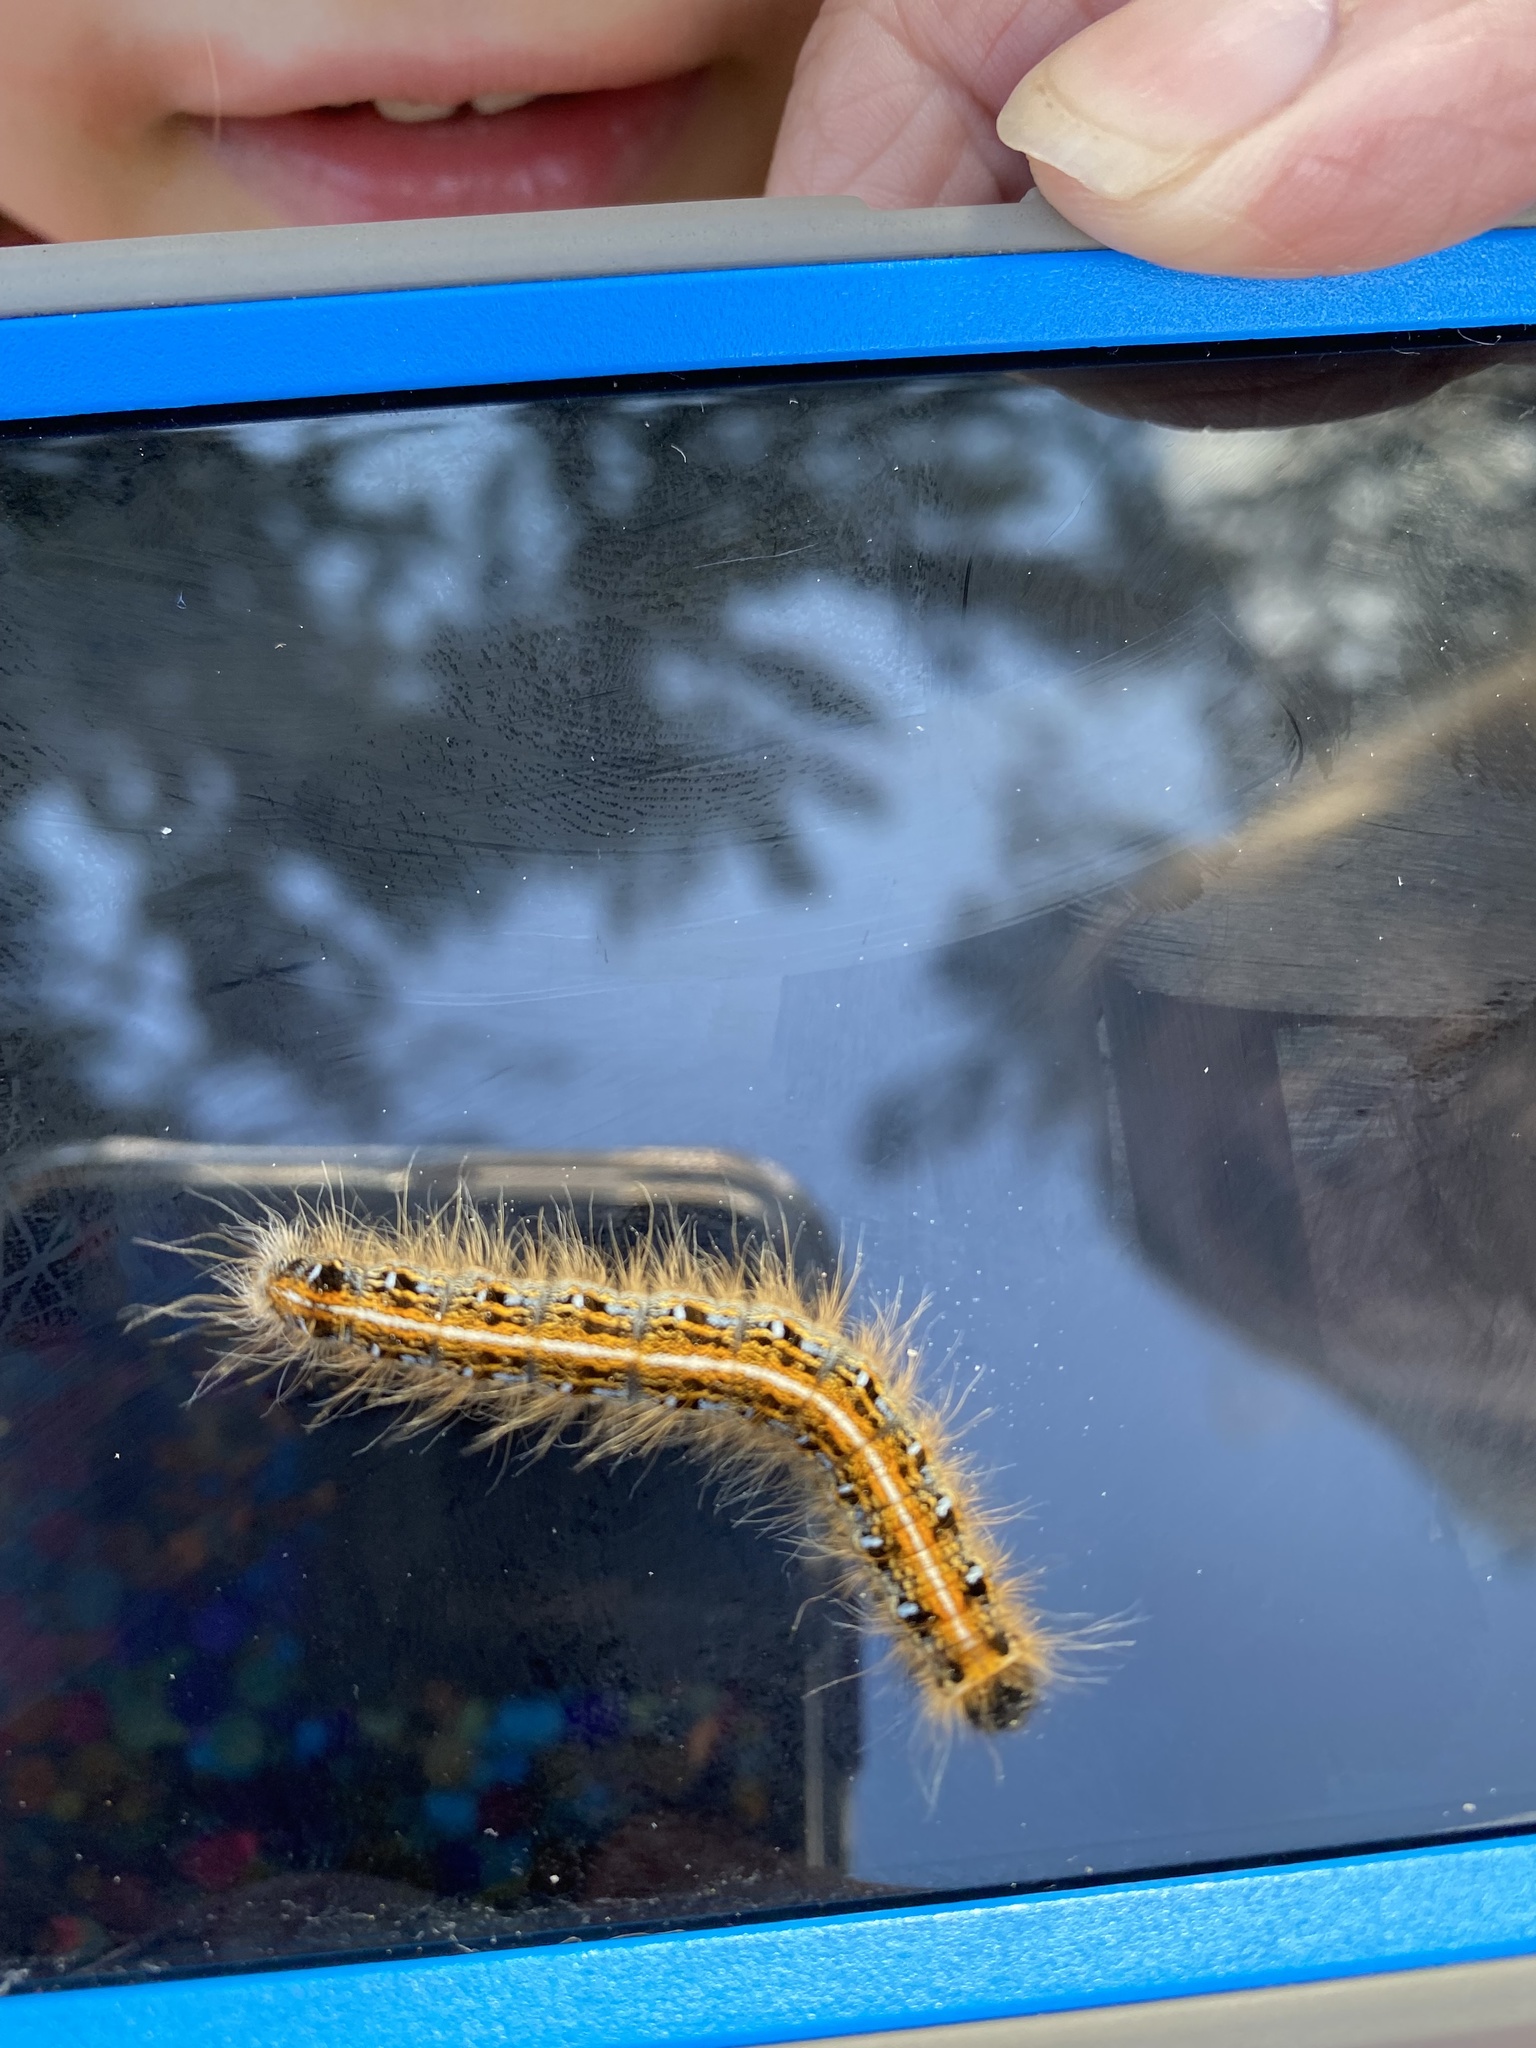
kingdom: Animalia
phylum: Arthropoda
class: Insecta
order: Lepidoptera
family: Lasiocampidae
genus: Malacosoma
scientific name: Malacosoma americana
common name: Eastern tent caterpillar moth
